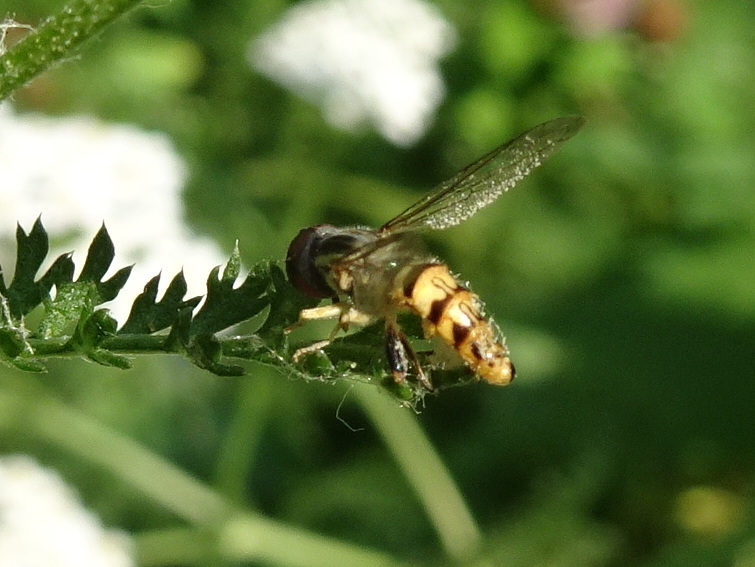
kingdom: Animalia
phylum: Arthropoda
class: Insecta
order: Diptera
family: Syrphidae
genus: Toxomerus
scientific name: Toxomerus geminatus
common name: Eastern calligrapher
